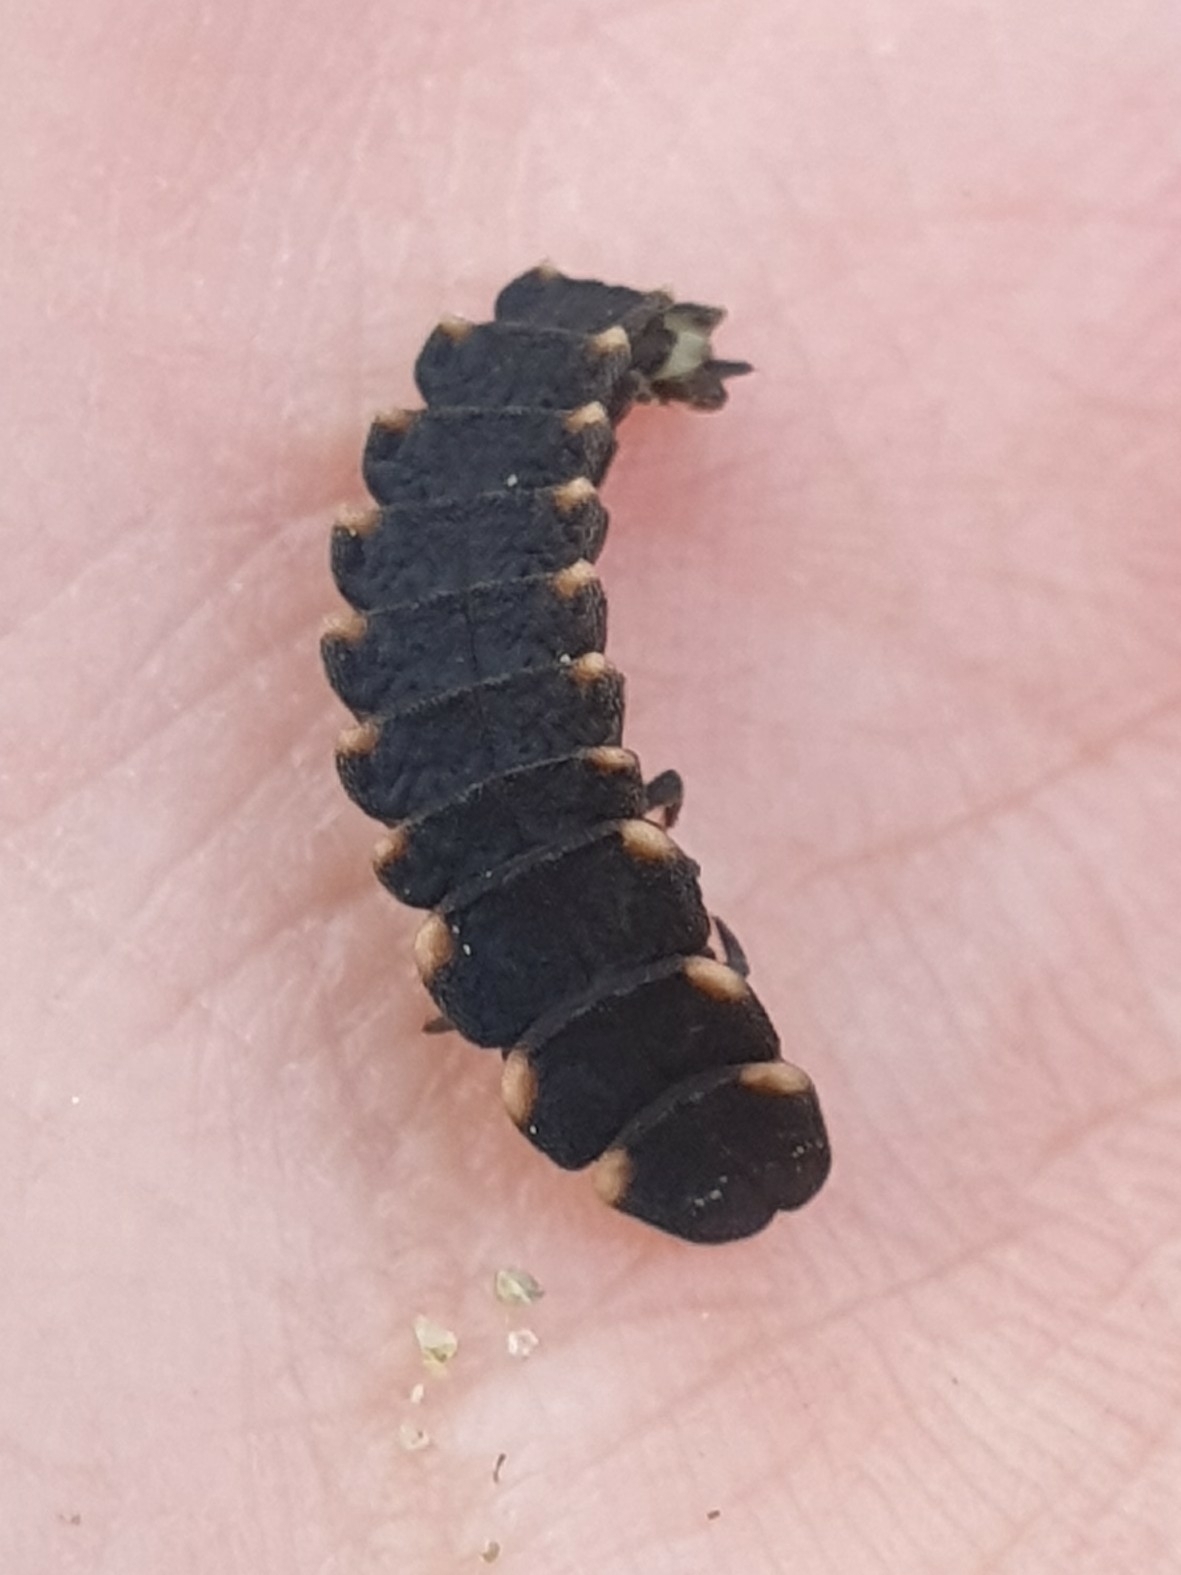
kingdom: Animalia
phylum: Arthropoda
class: Insecta
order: Coleoptera
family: Lampyridae
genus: Lampyris
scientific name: Lampyris noctiluca
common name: Glow-worm
